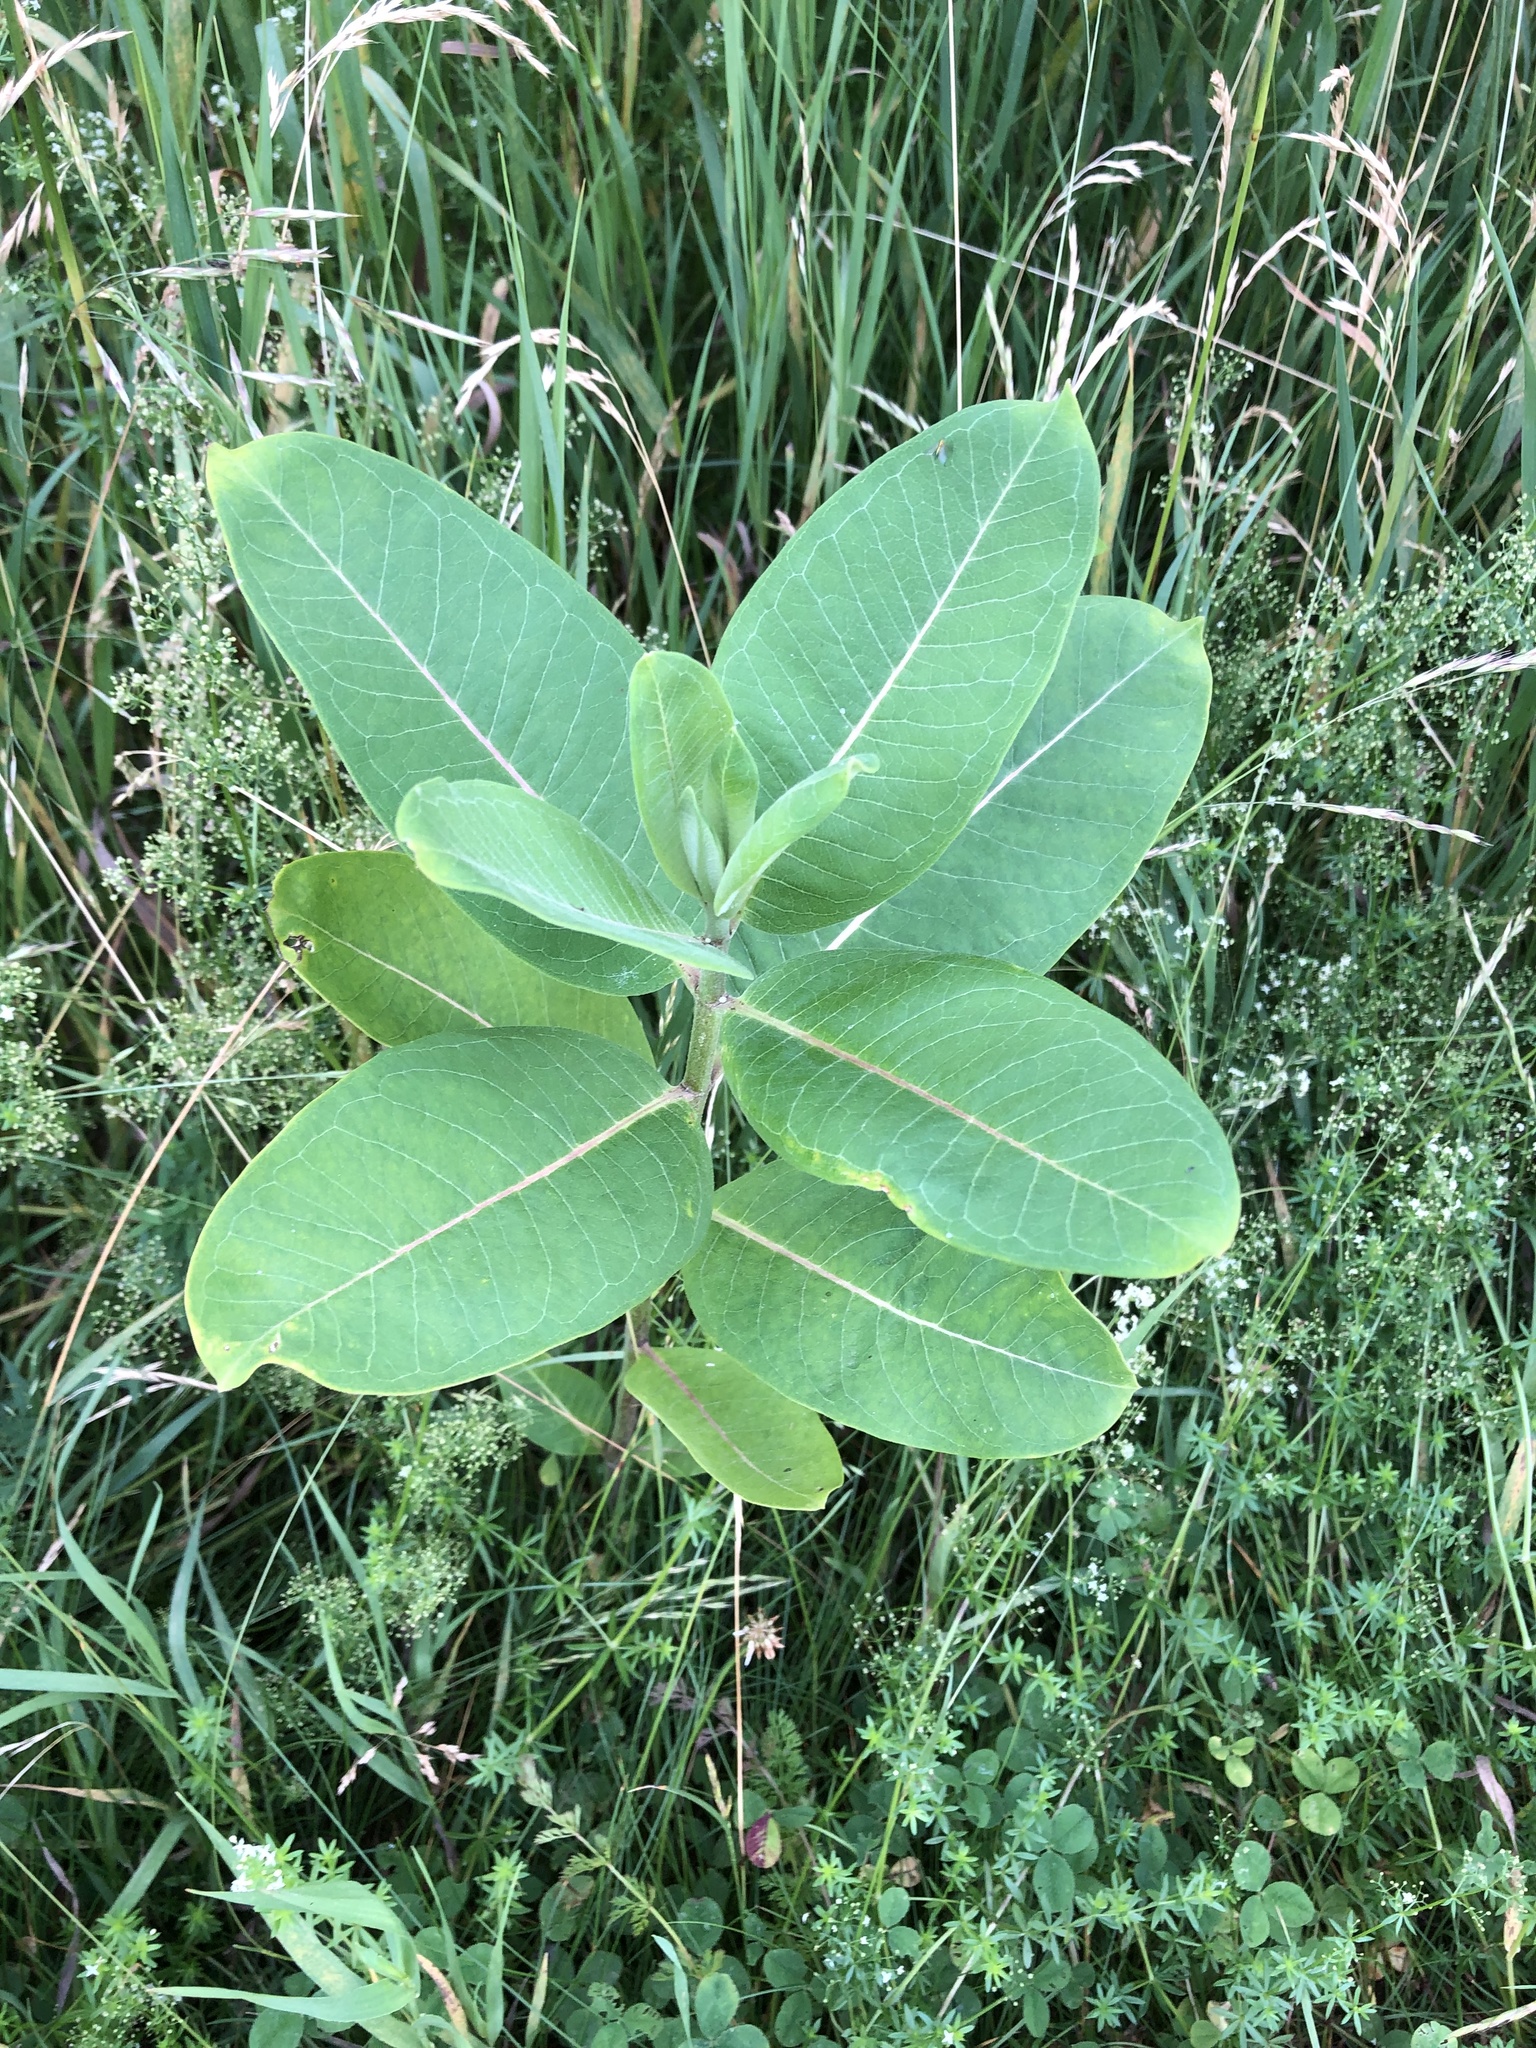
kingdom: Plantae
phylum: Tracheophyta
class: Magnoliopsida
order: Gentianales
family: Apocynaceae
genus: Asclepias
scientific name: Asclepias syriaca
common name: Common milkweed
